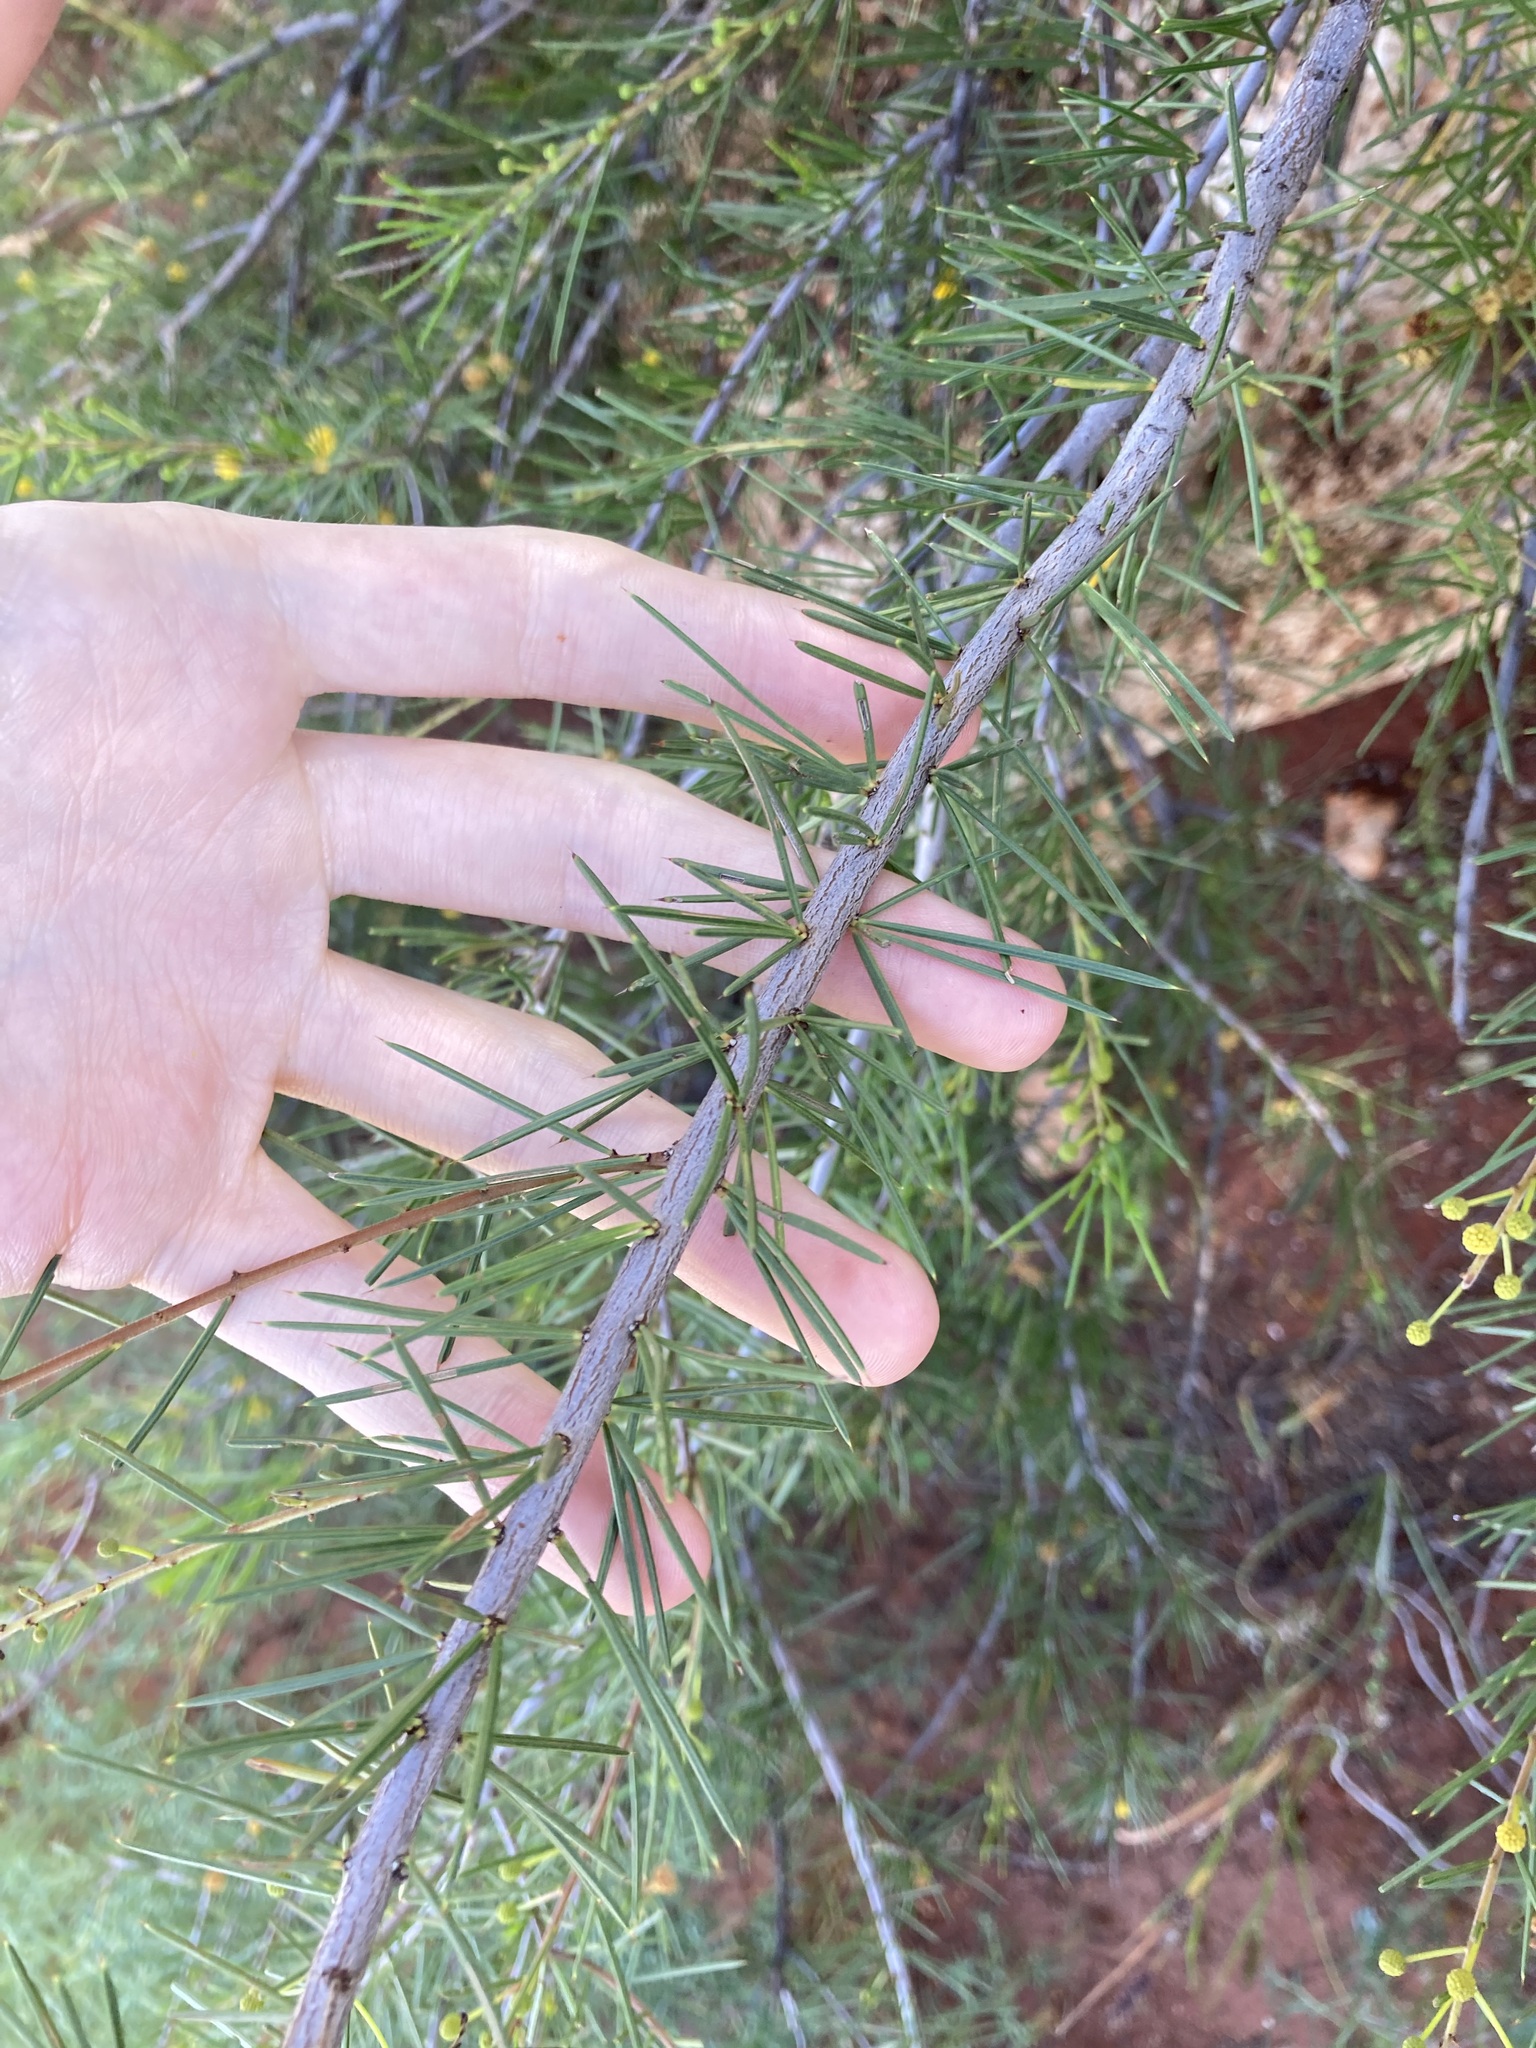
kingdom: Plantae
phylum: Tracheophyta
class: Magnoliopsida
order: Fabales
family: Fabaceae
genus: Acacia
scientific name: Acacia tetragonophylla
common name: Dead finish
